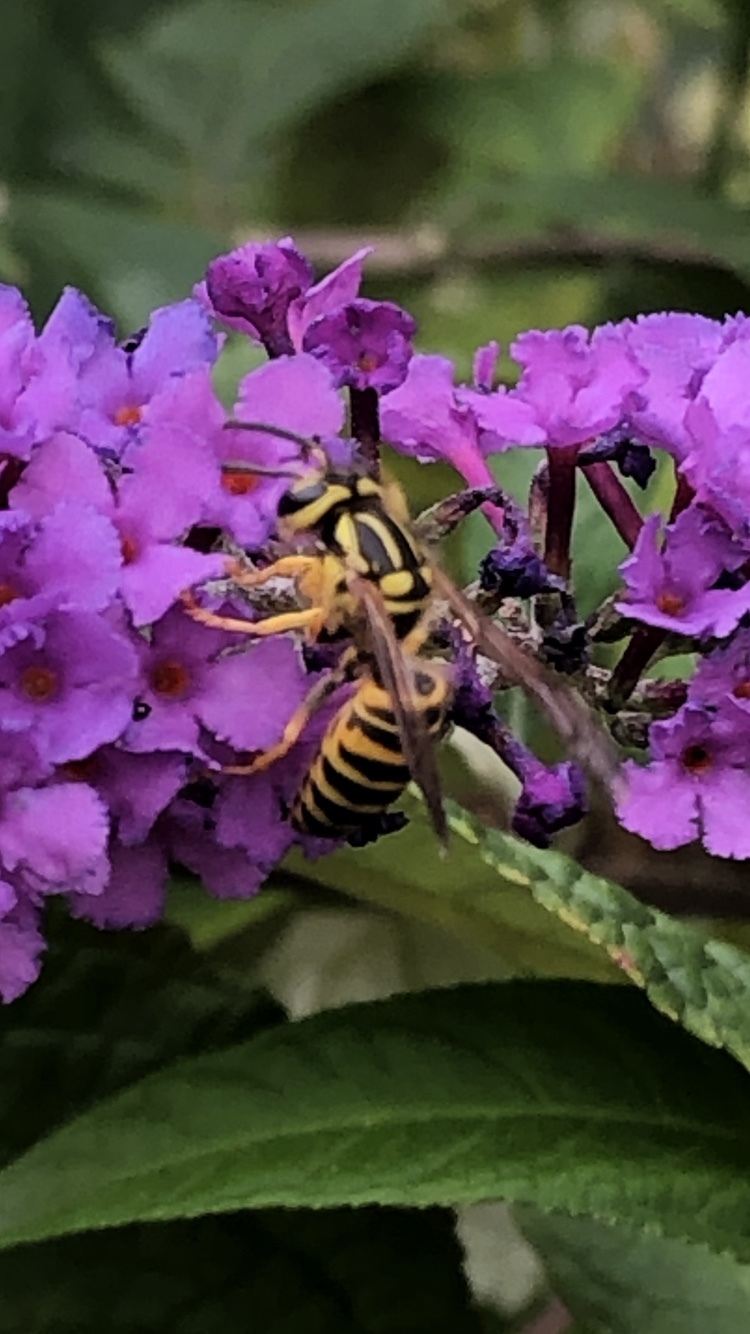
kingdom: Animalia
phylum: Arthropoda
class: Insecta
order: Hymenoptera
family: Vespidae
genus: Vespula
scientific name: Vespula squamosa
